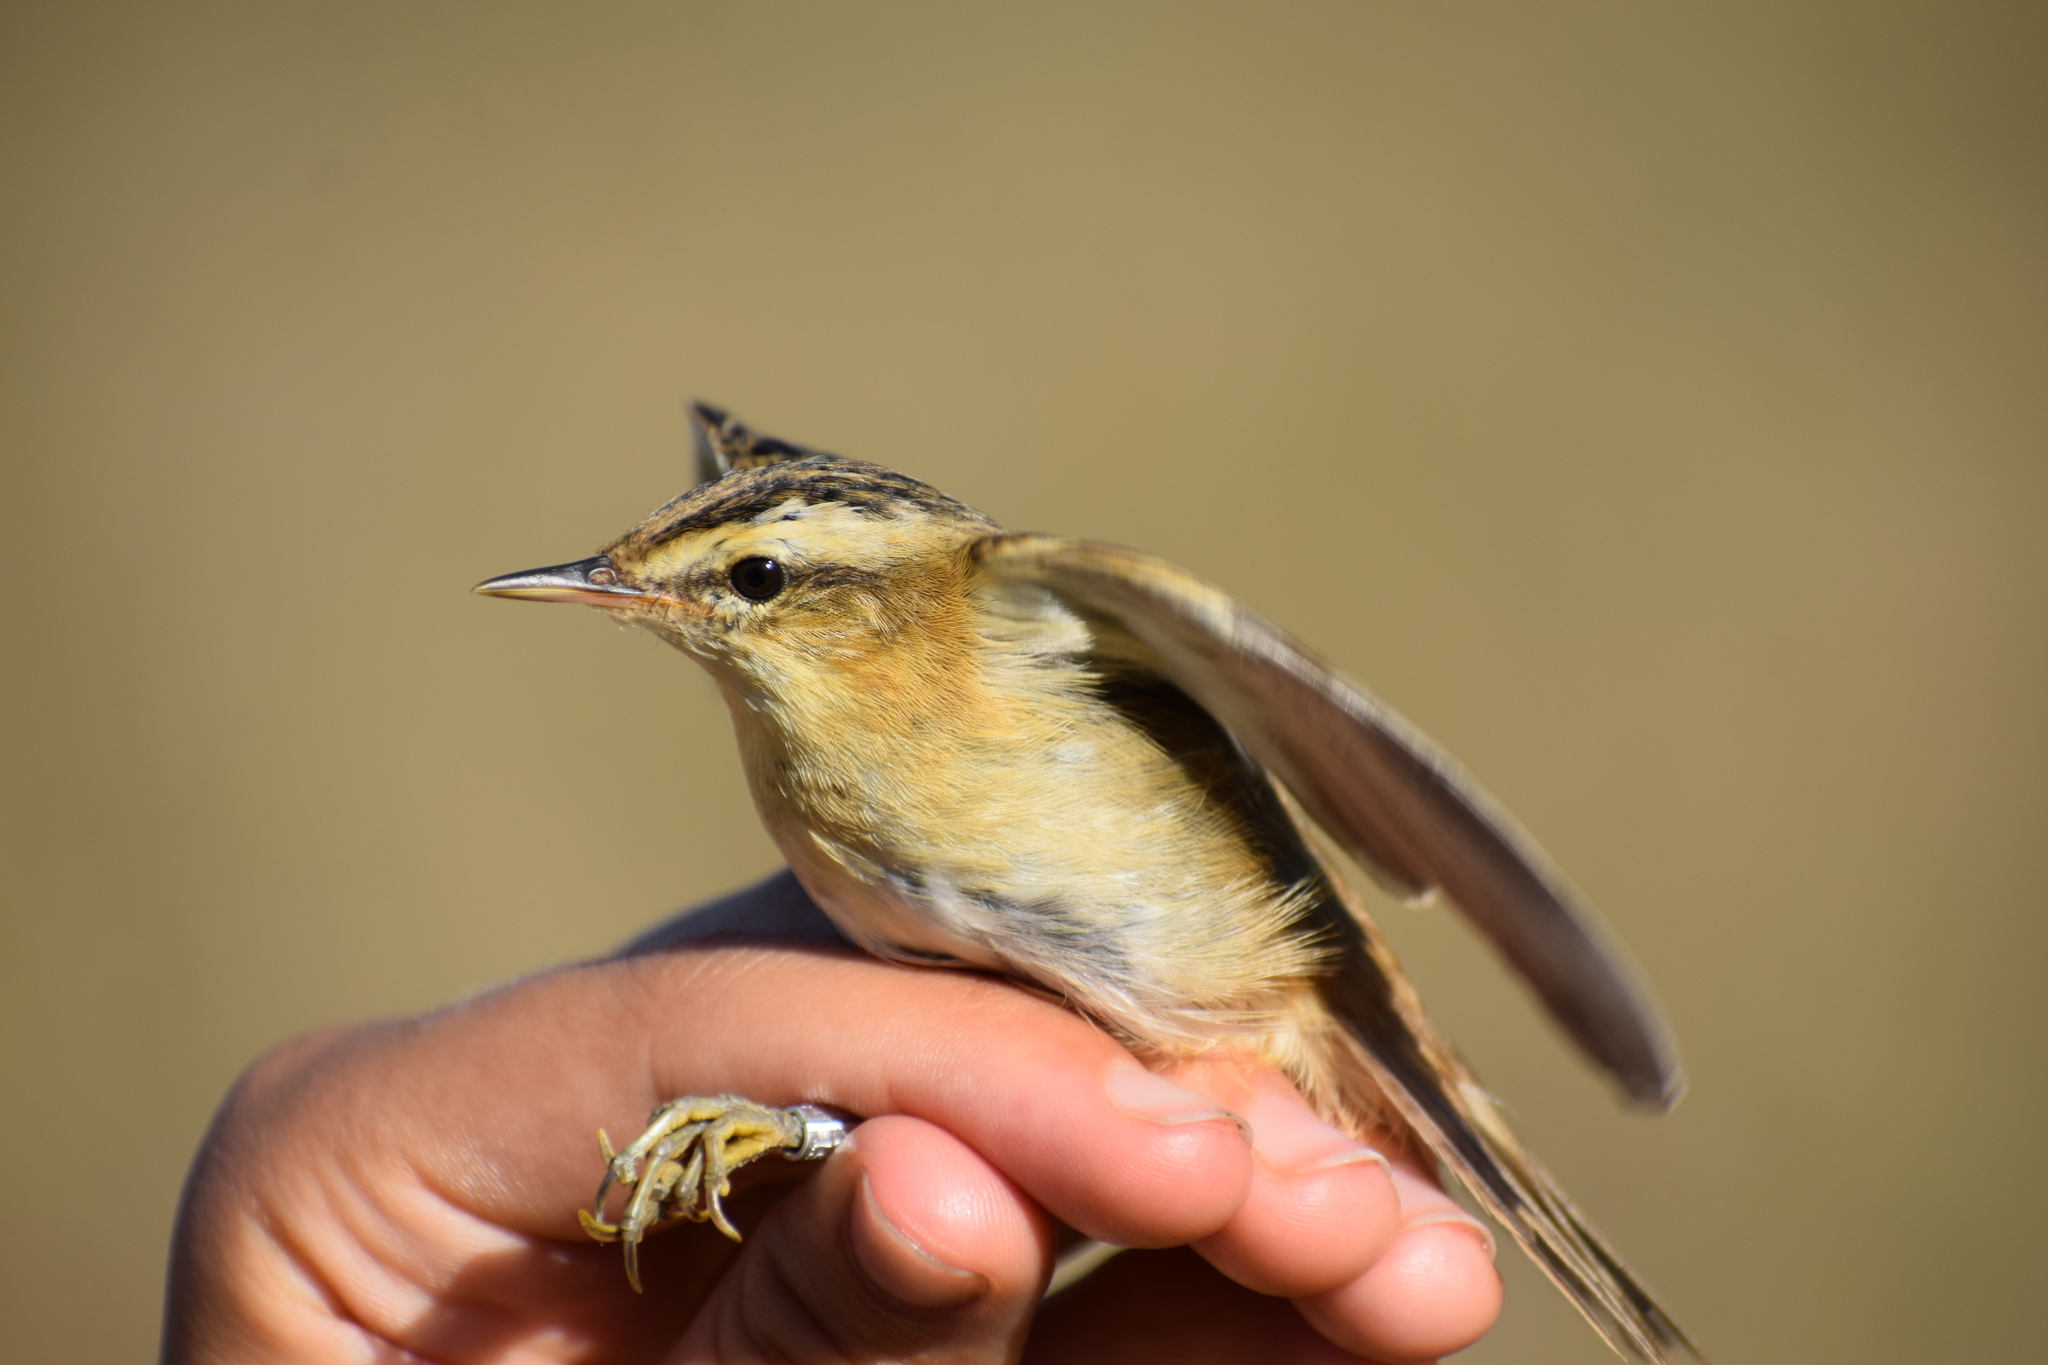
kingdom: Animalia
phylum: Chordata
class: Aves
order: Passeriformes
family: Acrocephalidae
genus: Acrocephalus
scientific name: Acrocephalus schoenobaenus
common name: Sedge warbler
